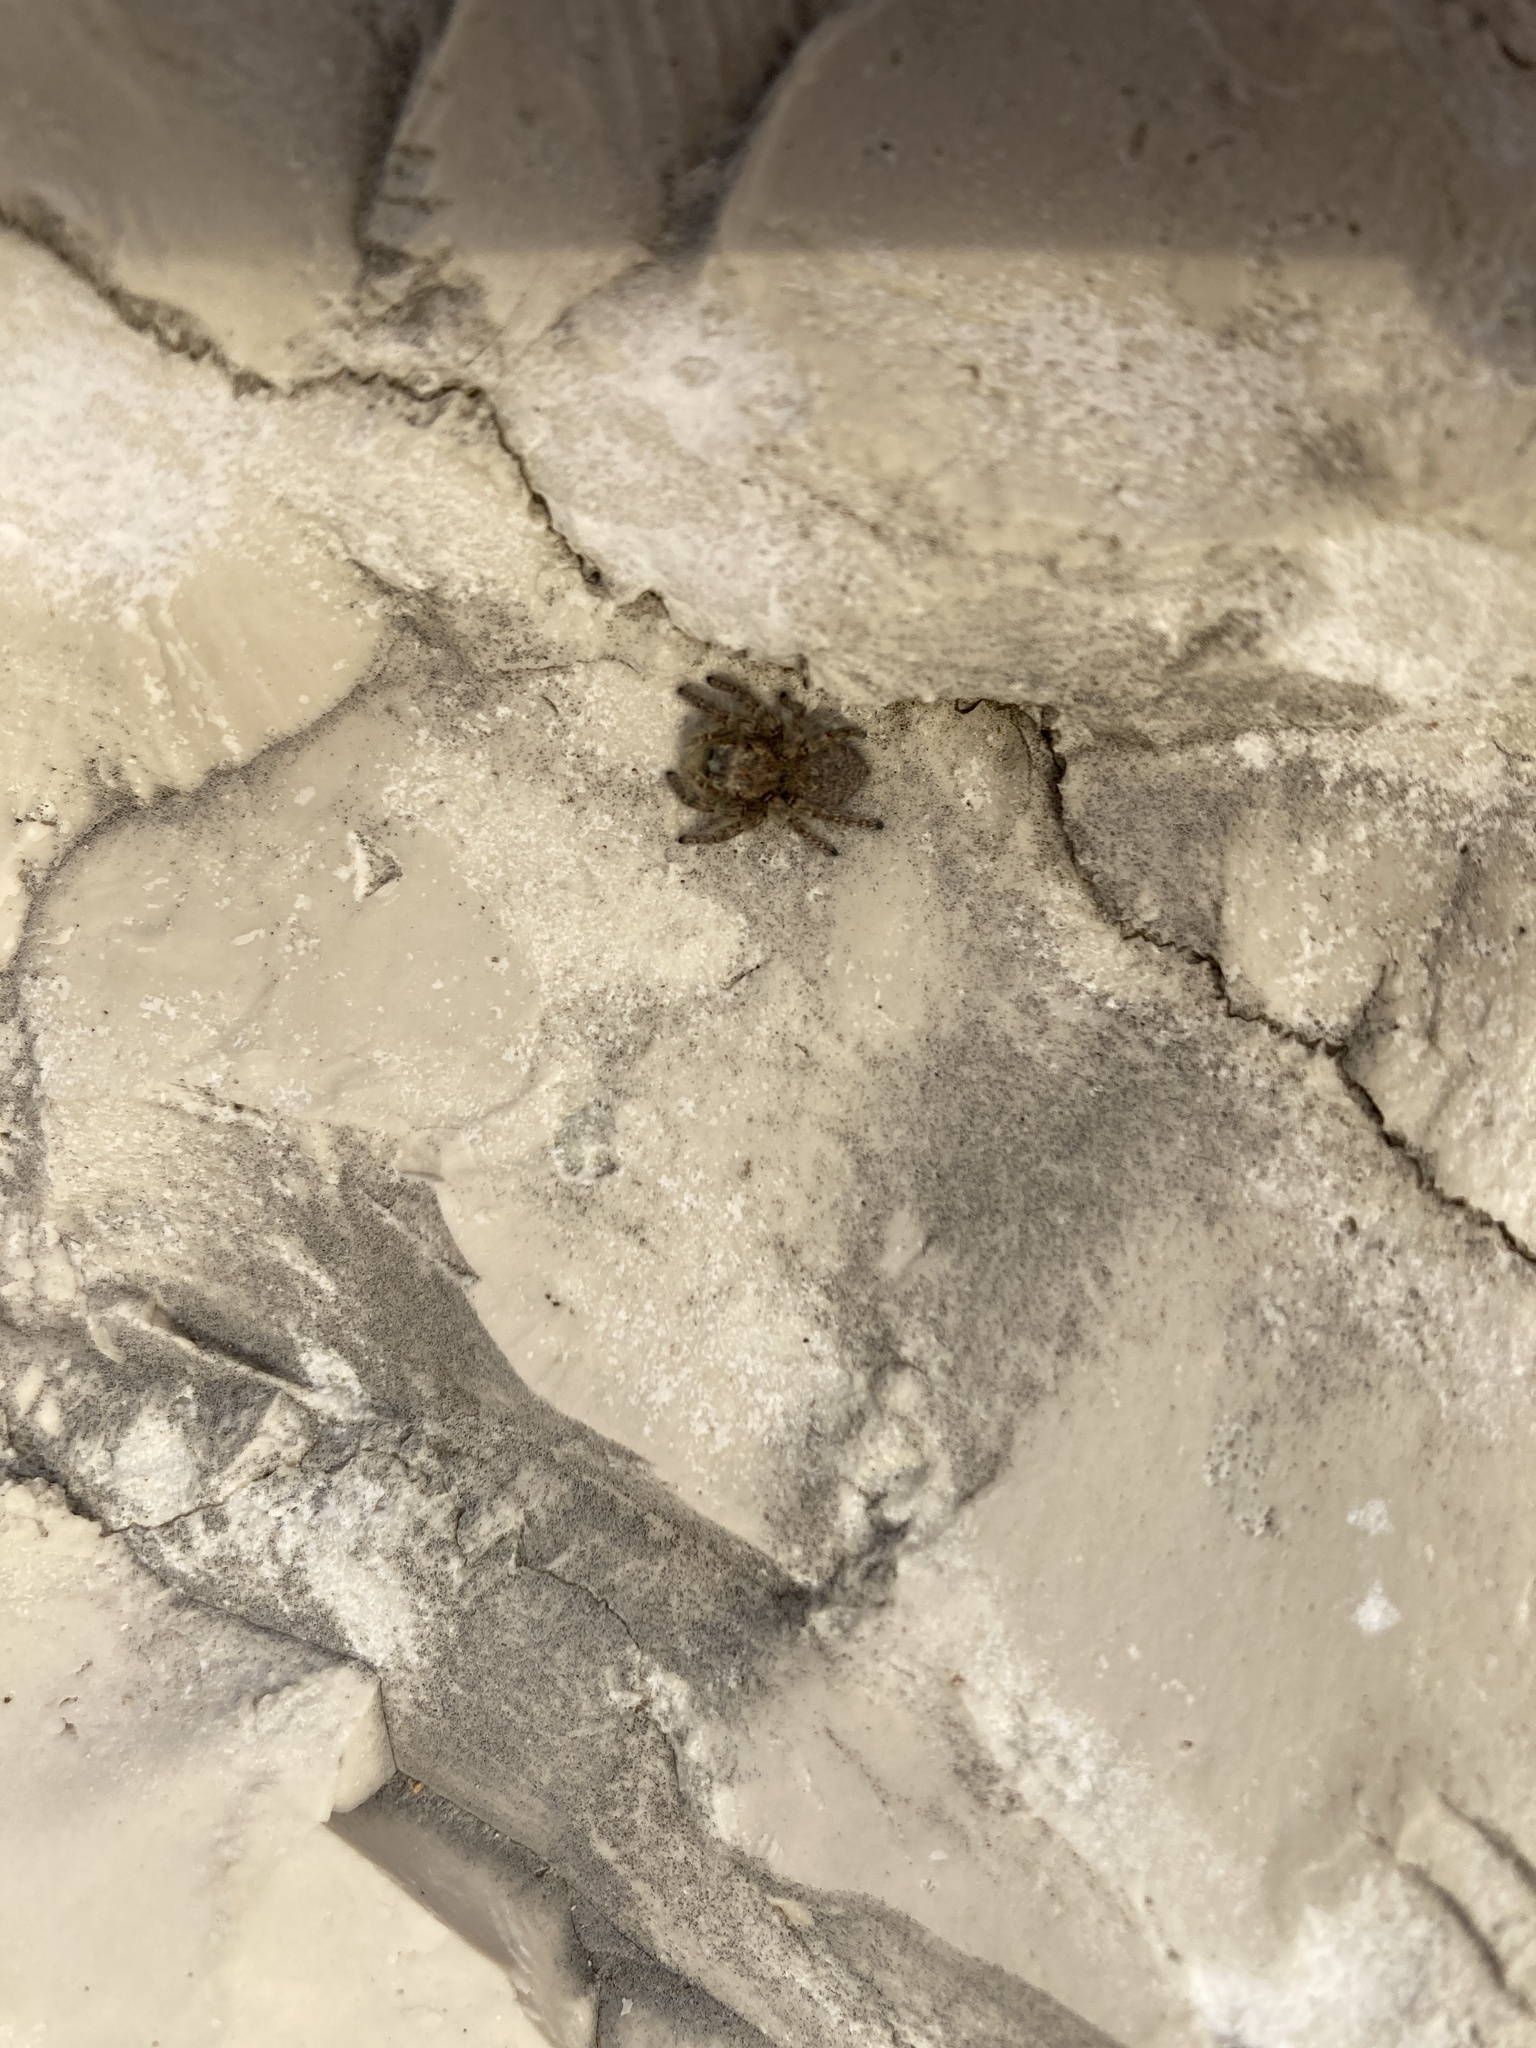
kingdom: Animalia
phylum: Arthropoda
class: Arachnida
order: Araneae
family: Salticidae
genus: Philaeus
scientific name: Philaeus chrysops
